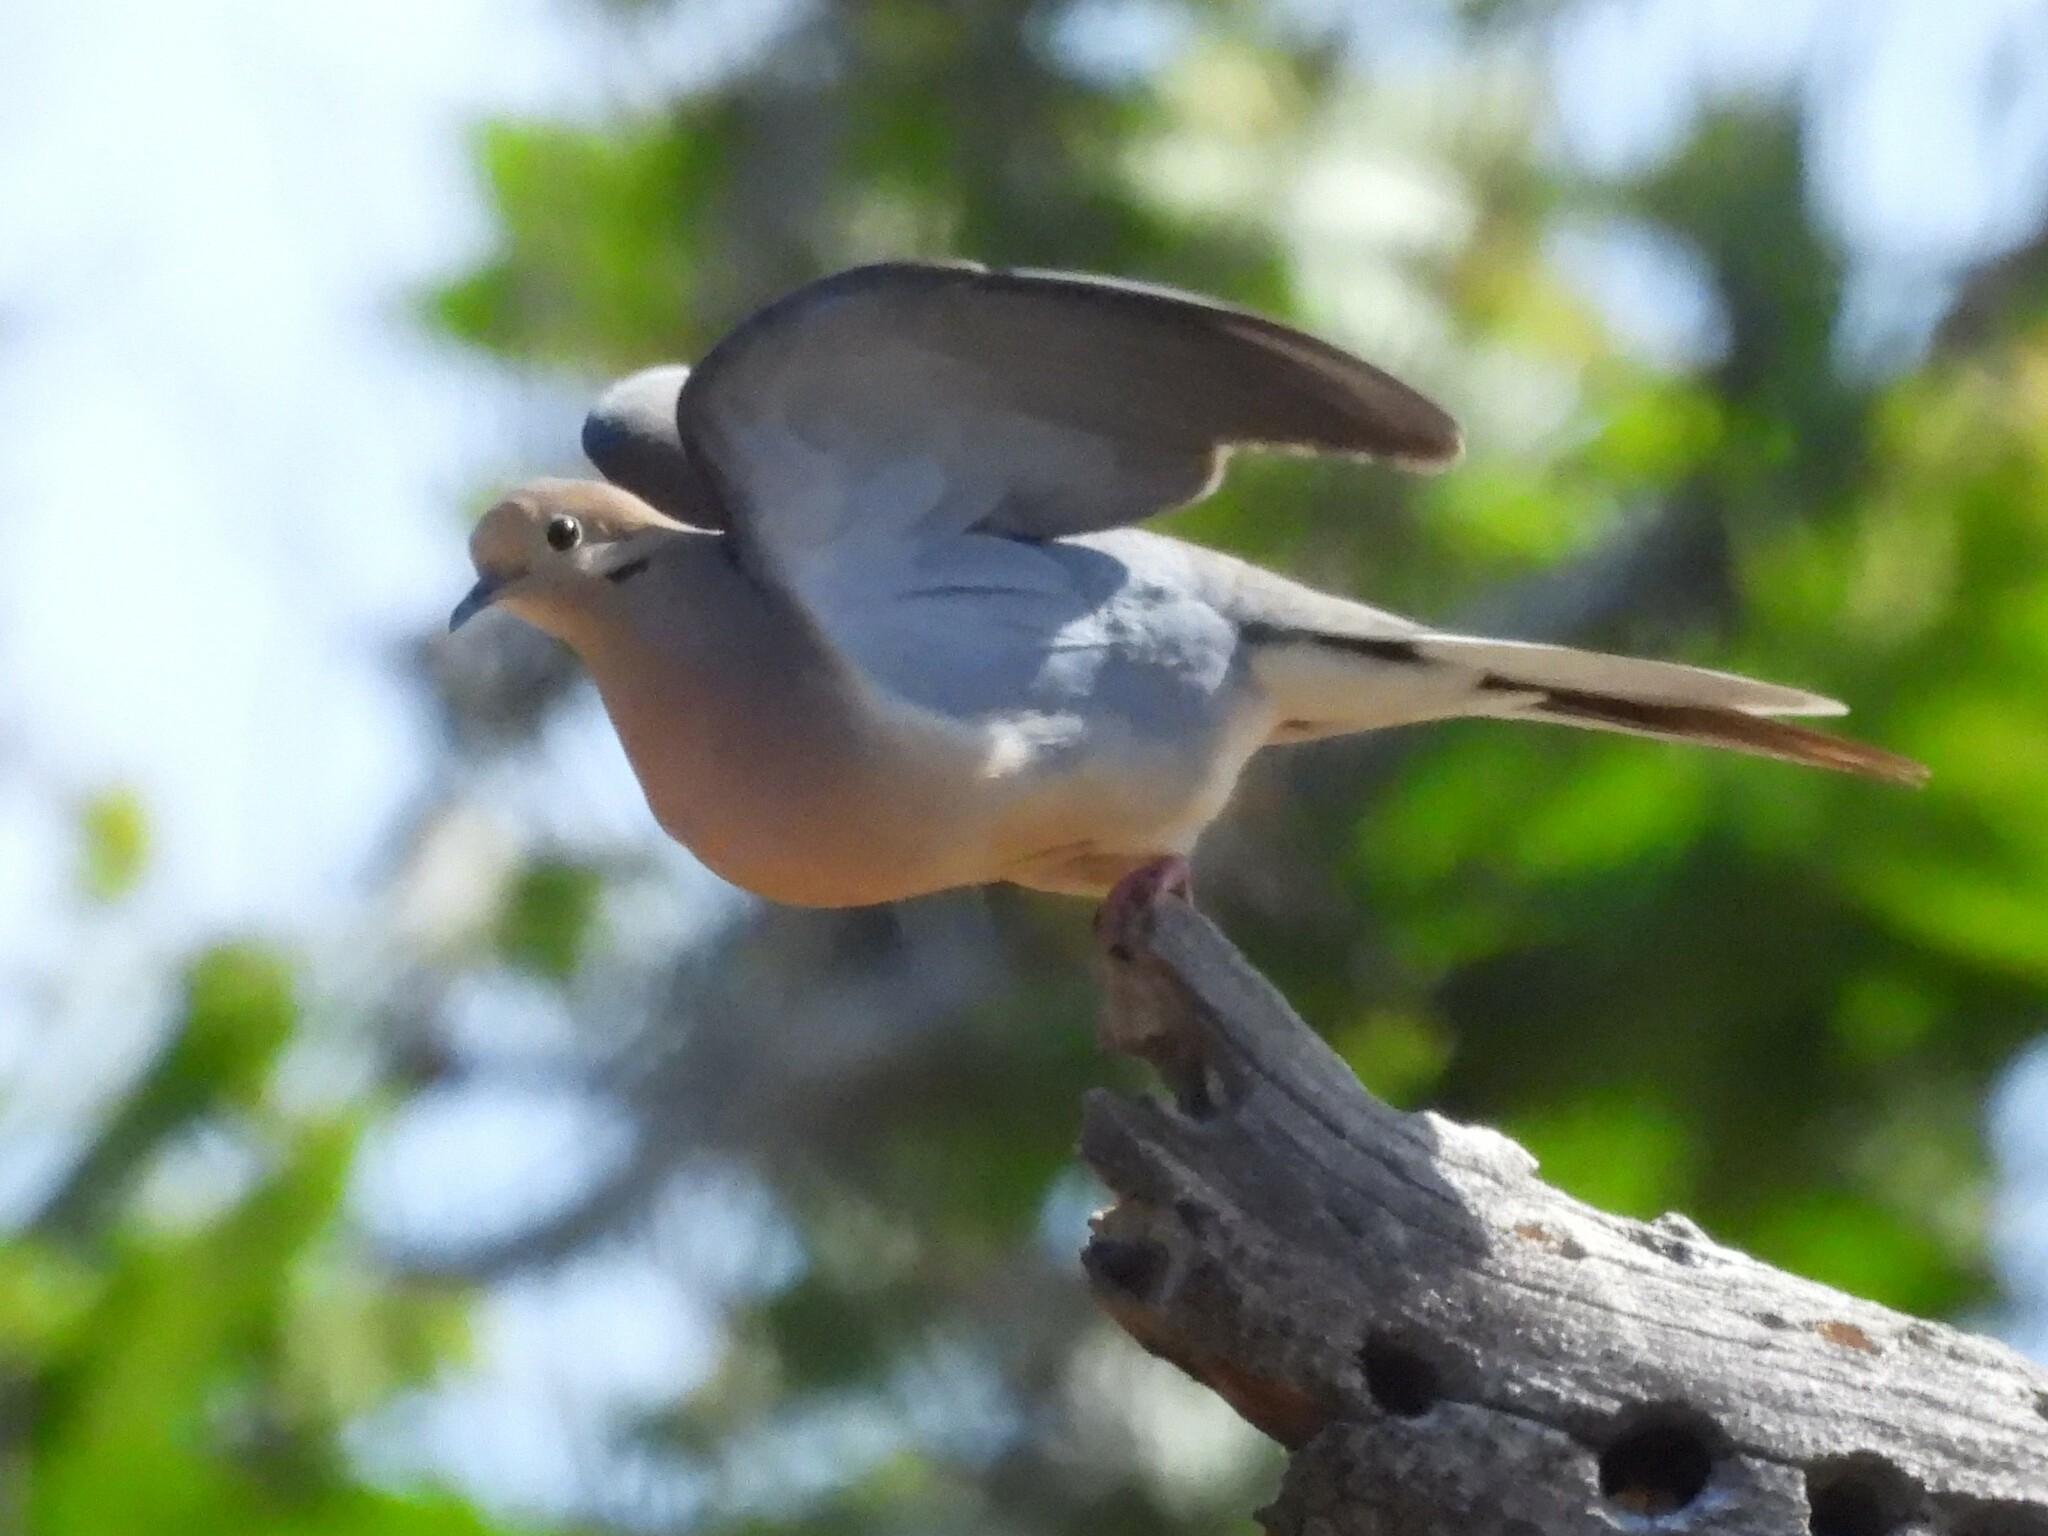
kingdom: Animalia
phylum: Chordata
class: Aves
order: Columbiformes
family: Columbidae
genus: Zenaida
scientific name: Zenaida macroura
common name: Mourning dove
